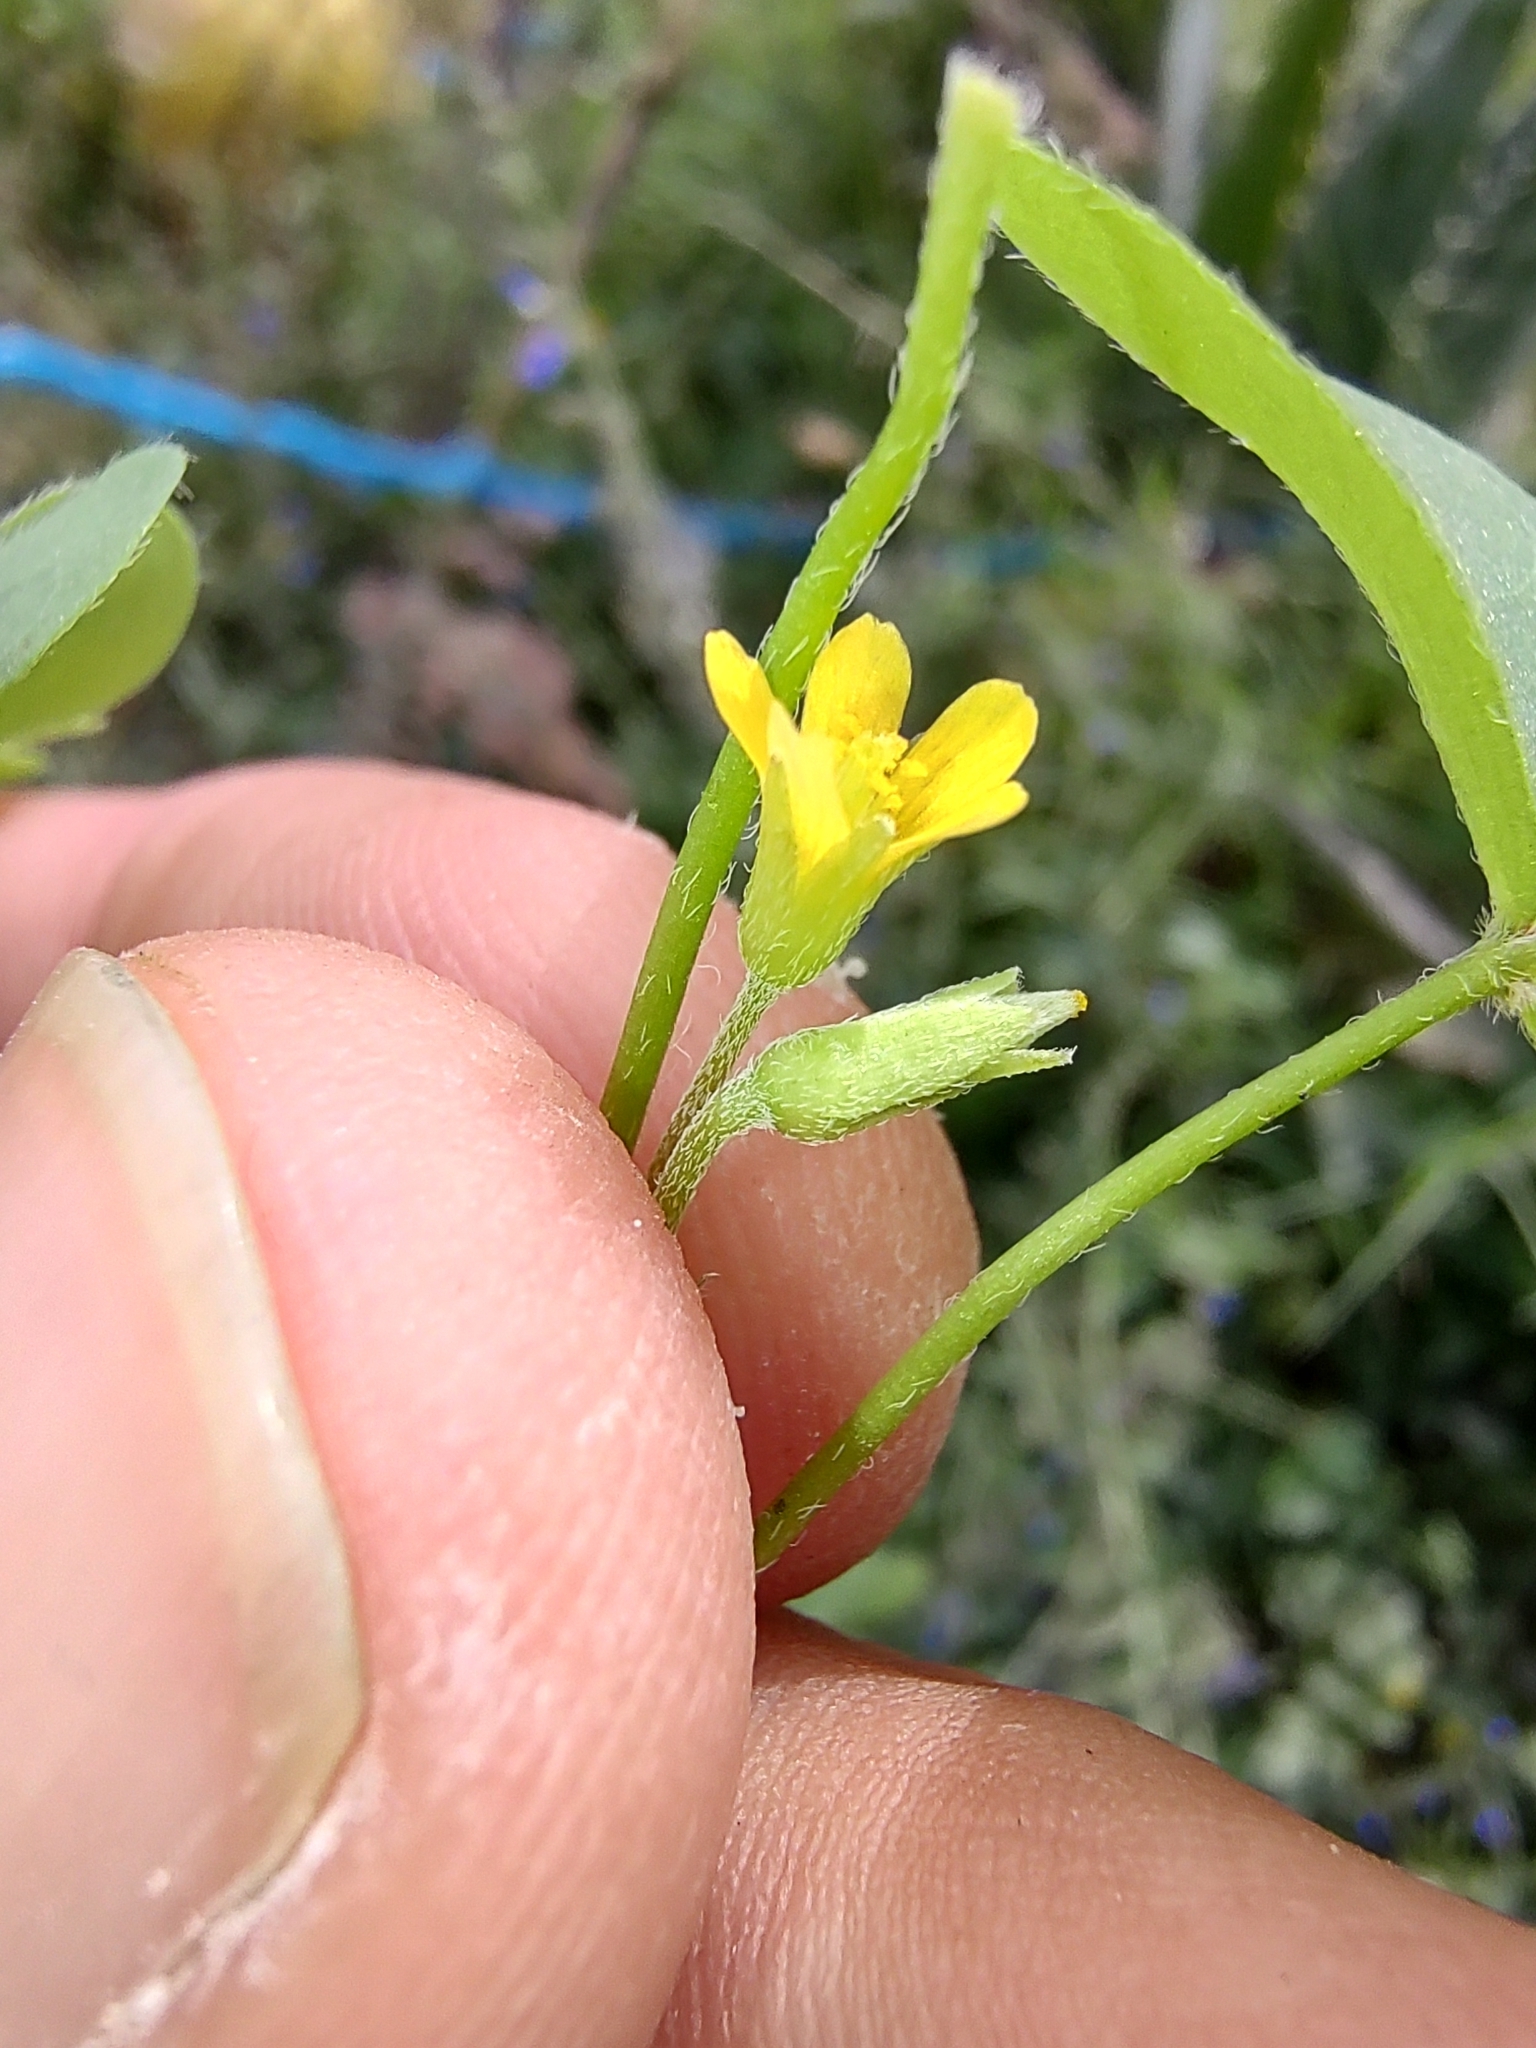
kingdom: Plantae
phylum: Tracheophyta
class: Magnoliopsida
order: Oxalidales
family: Oxalidaceae
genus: Oxalis
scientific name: Oxalis dillenii
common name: Sussex yellow-sorrel
